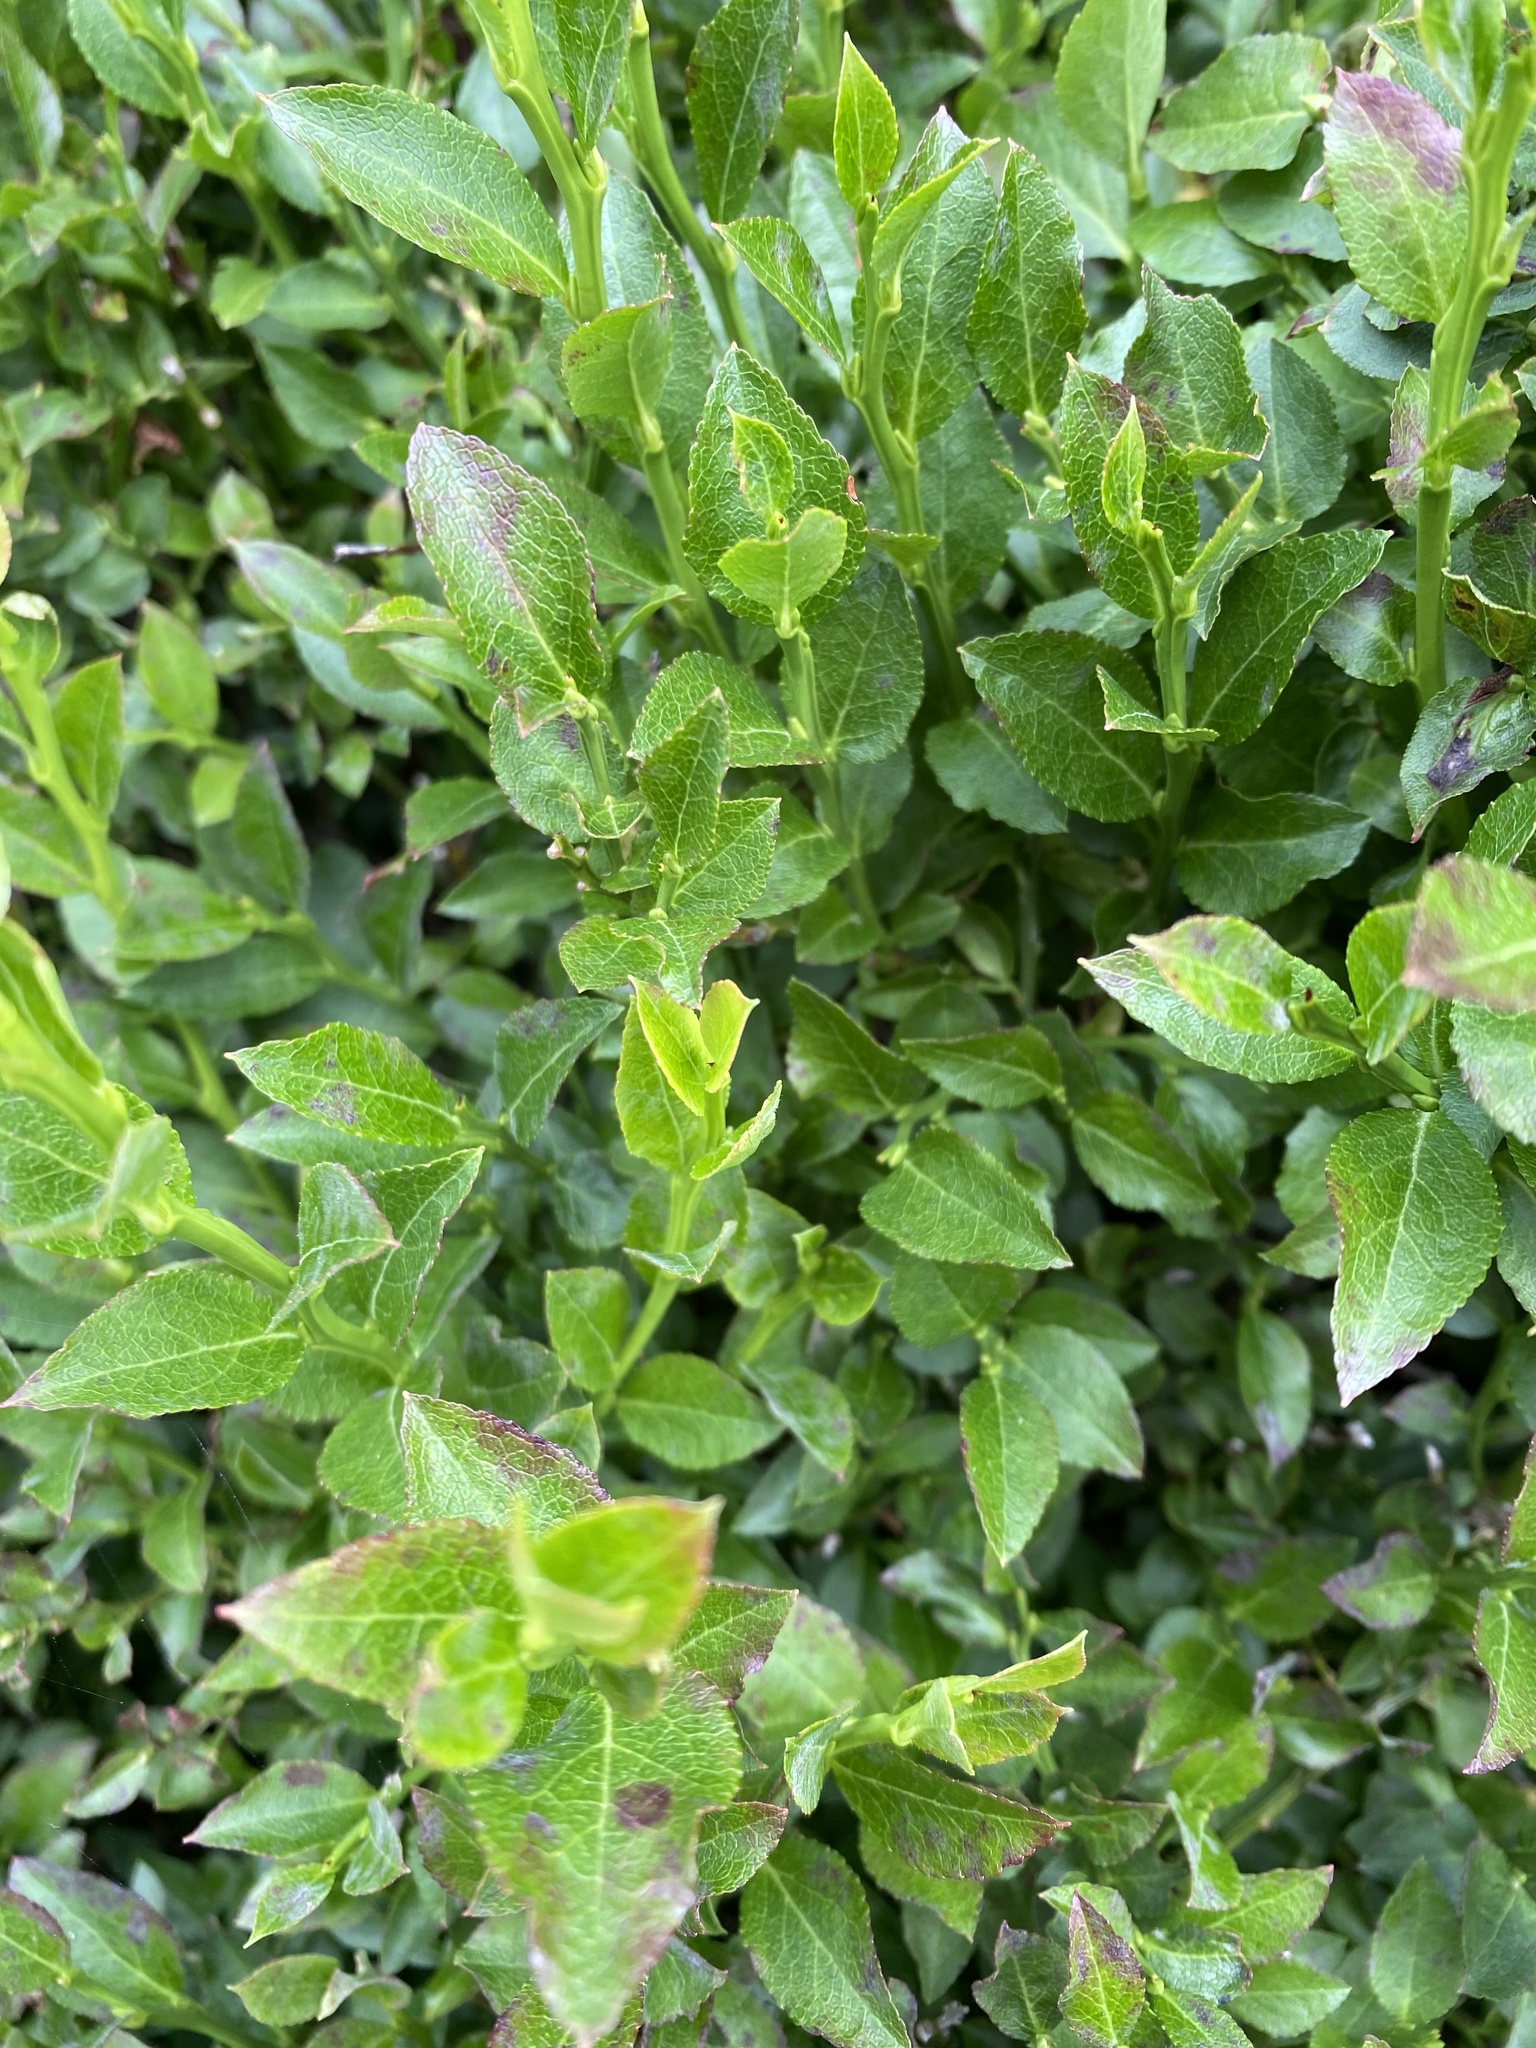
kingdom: Plantae
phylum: Tracheophyta
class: Magnoliopsida
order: Ericales
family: Ericaceae
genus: Vaccinium
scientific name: Vaccinium myrtillus
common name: Bilberry
